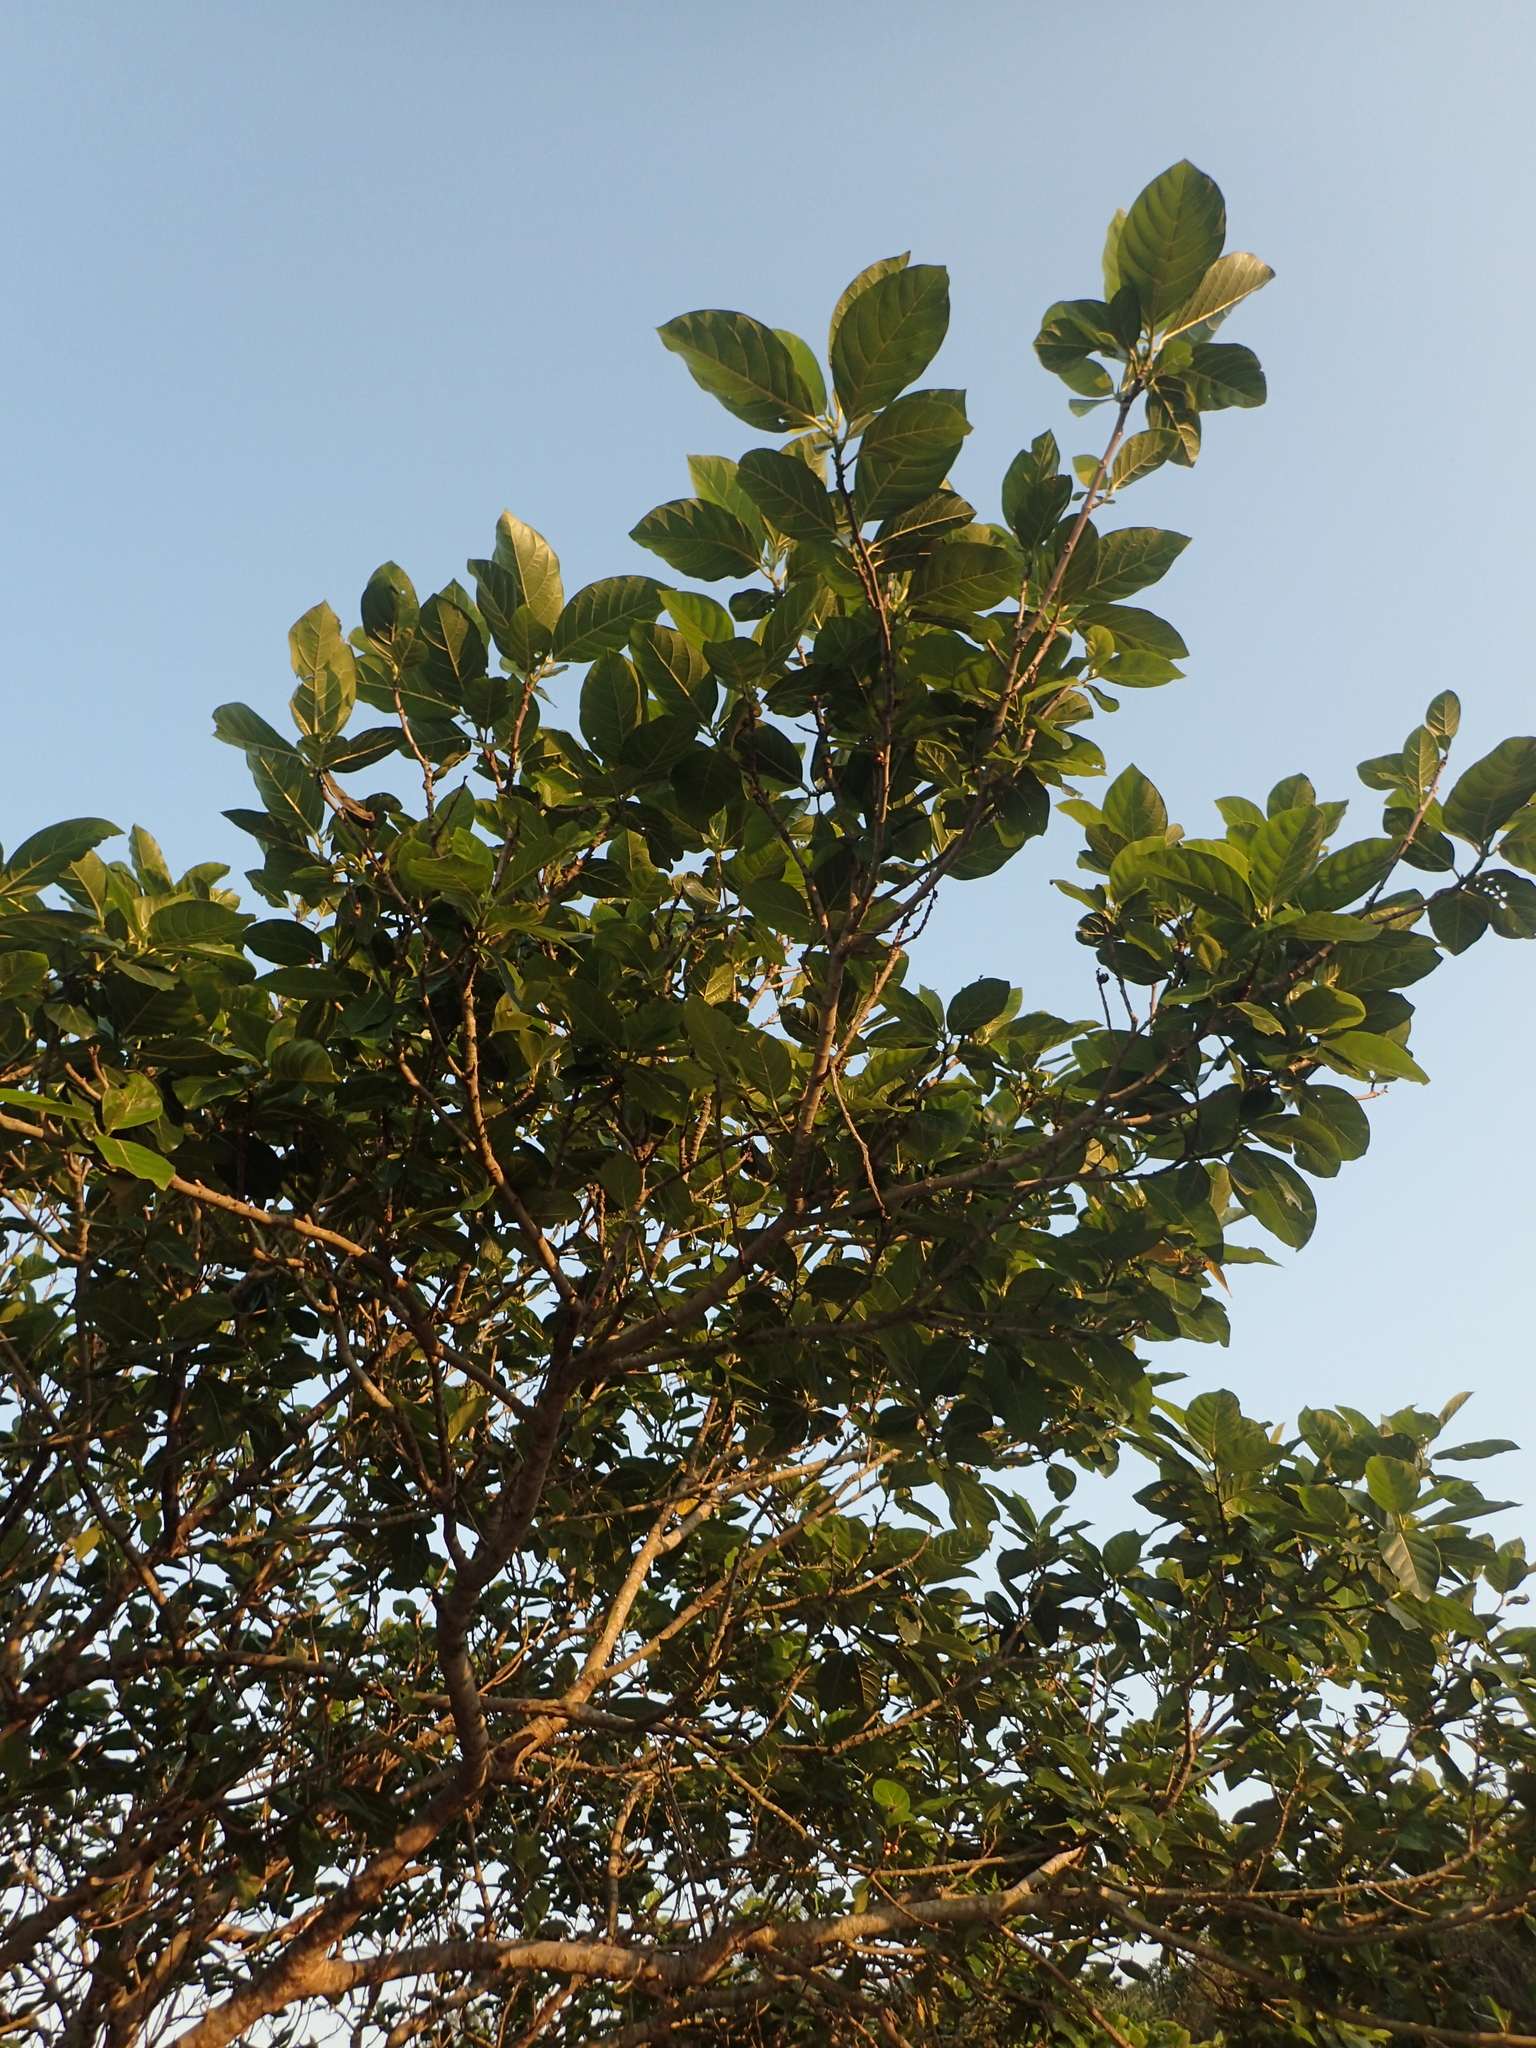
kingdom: Plantae
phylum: Tracheophyta
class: Magnoliopsida
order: Rosales
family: Moraceae
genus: Ficus
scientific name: Ficus septica
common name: Septic fig
